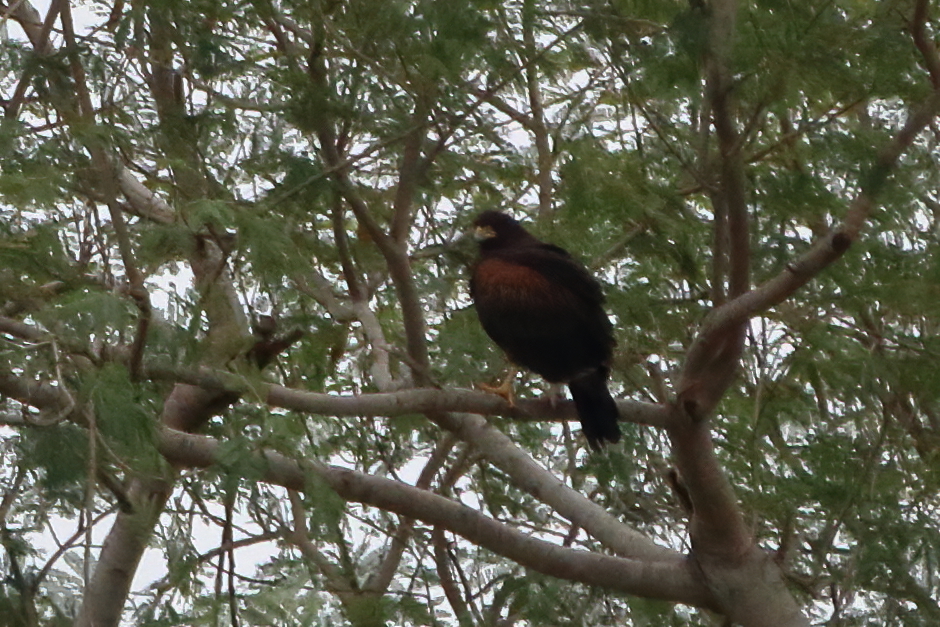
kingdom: Animalia
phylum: Chordata
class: Aves
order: Accipitriformes
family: Accipitridae
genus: Parabuteo
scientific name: Parabuteo unicinctus
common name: Harris's hawk
